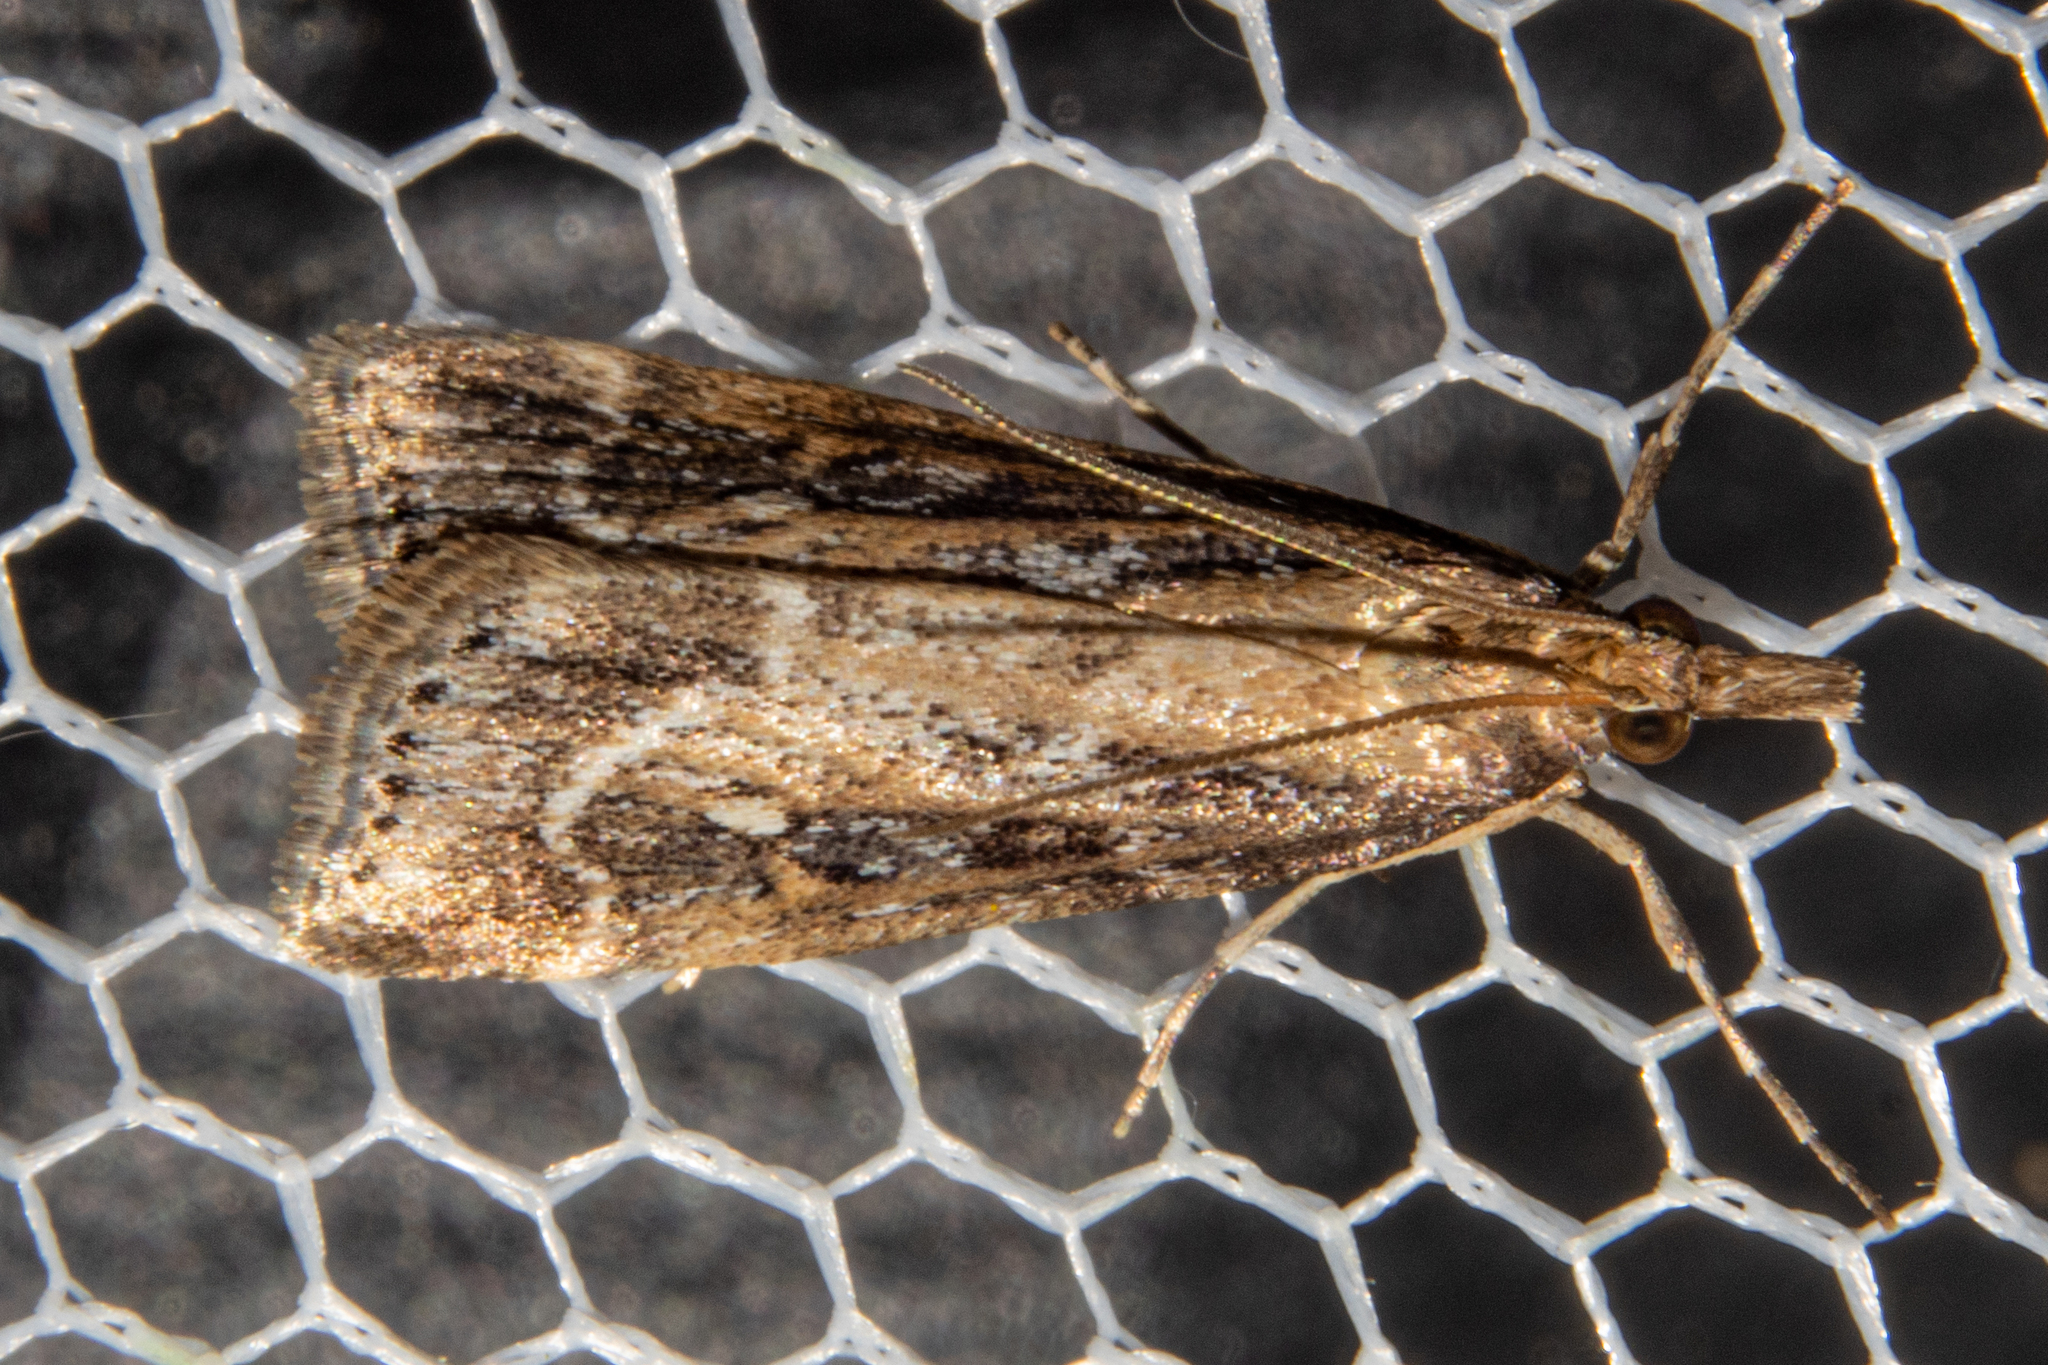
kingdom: Animalia
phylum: Arthropoda
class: Insecta
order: Lepidoptera
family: Crambidae
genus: Eudonia
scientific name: Eudonia octophora
